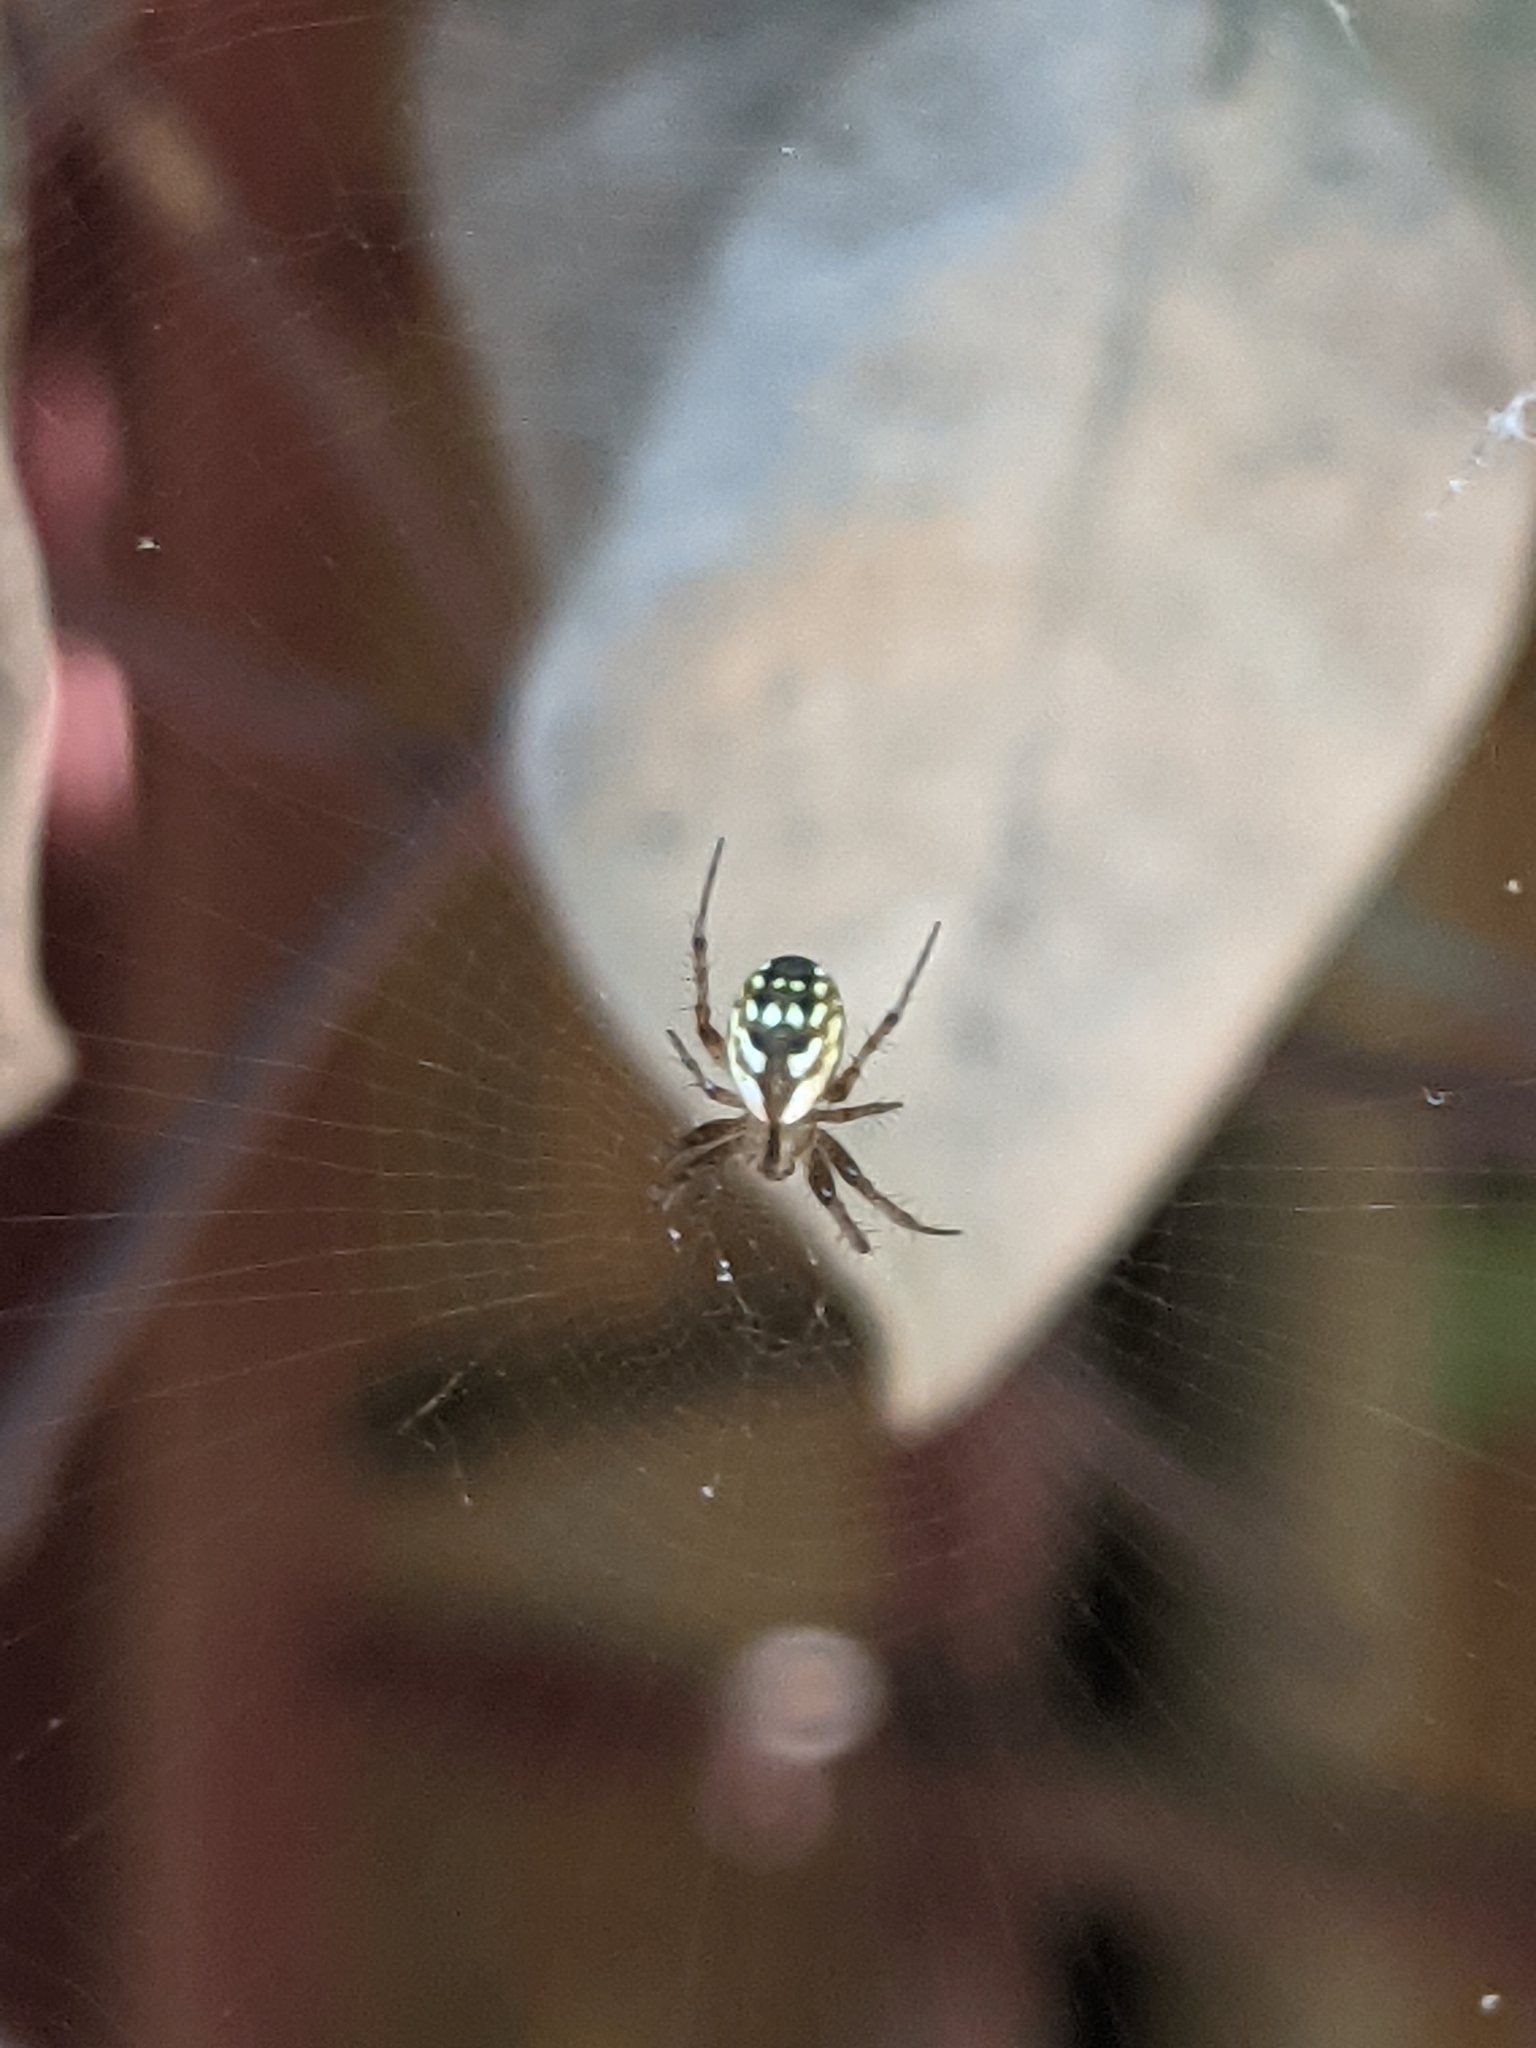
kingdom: Animalia
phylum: Arthropoda
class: Arachnida
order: Araneae
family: Araneidae
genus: Mangora
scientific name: Mangora placida
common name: Tuft-legged orbweaver
